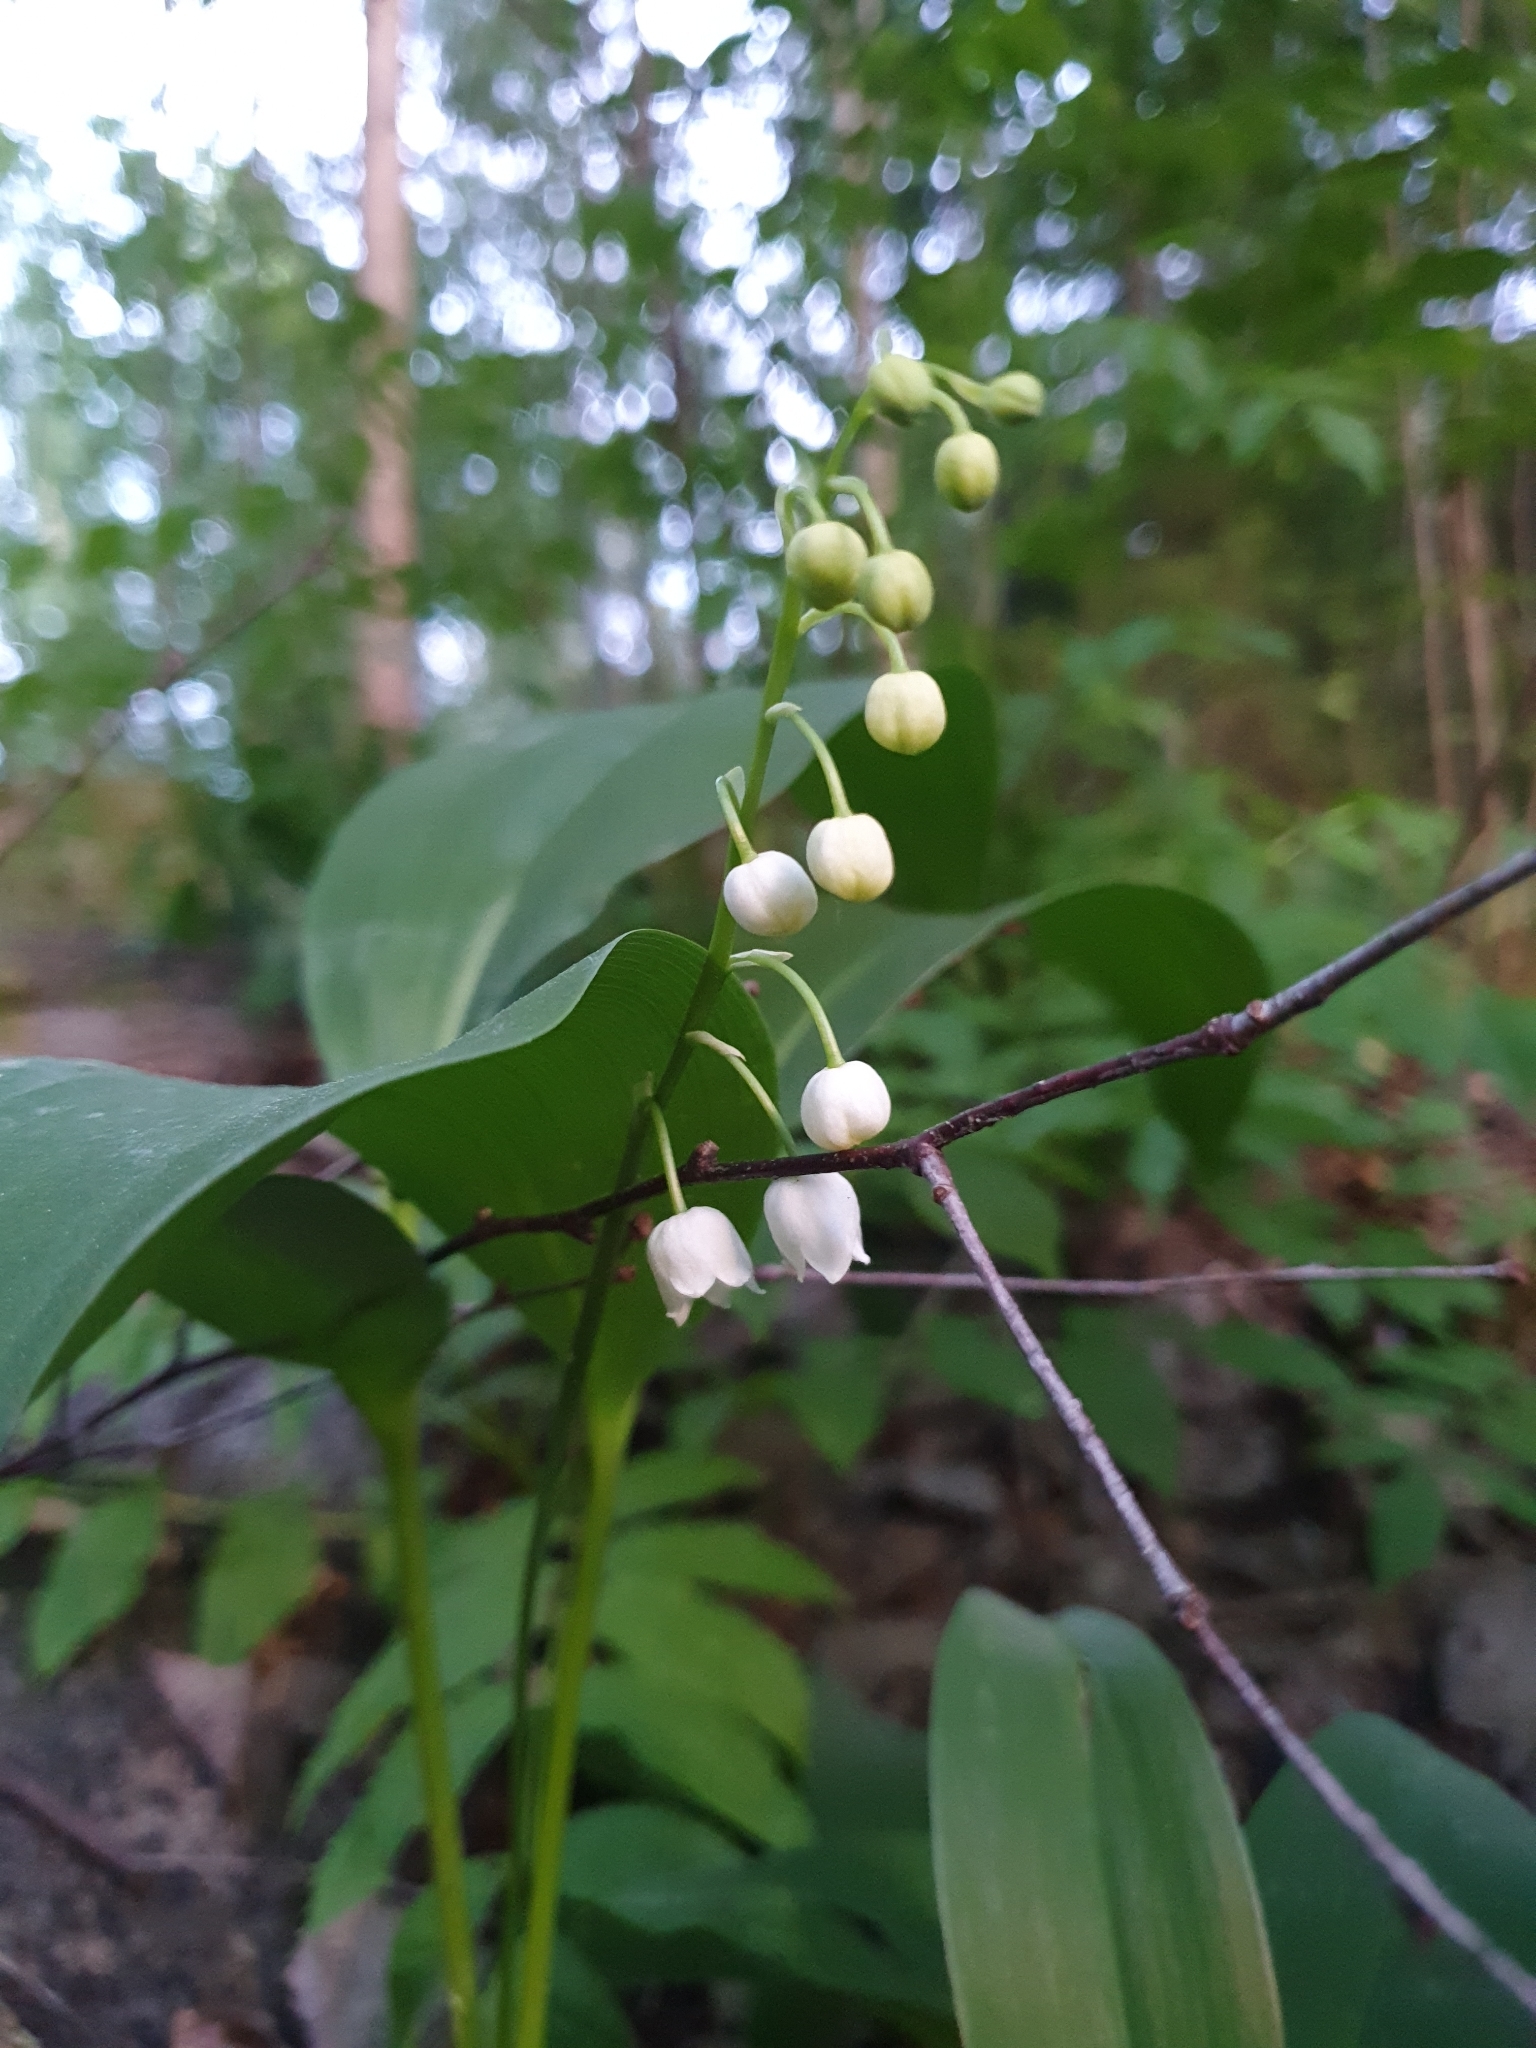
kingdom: Plantae
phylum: Tracheophyta
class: Liliopsida
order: Asparagales
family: Asparagaceae
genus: Convallaria
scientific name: Convallaria majalis
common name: Lily-of-the-valley
